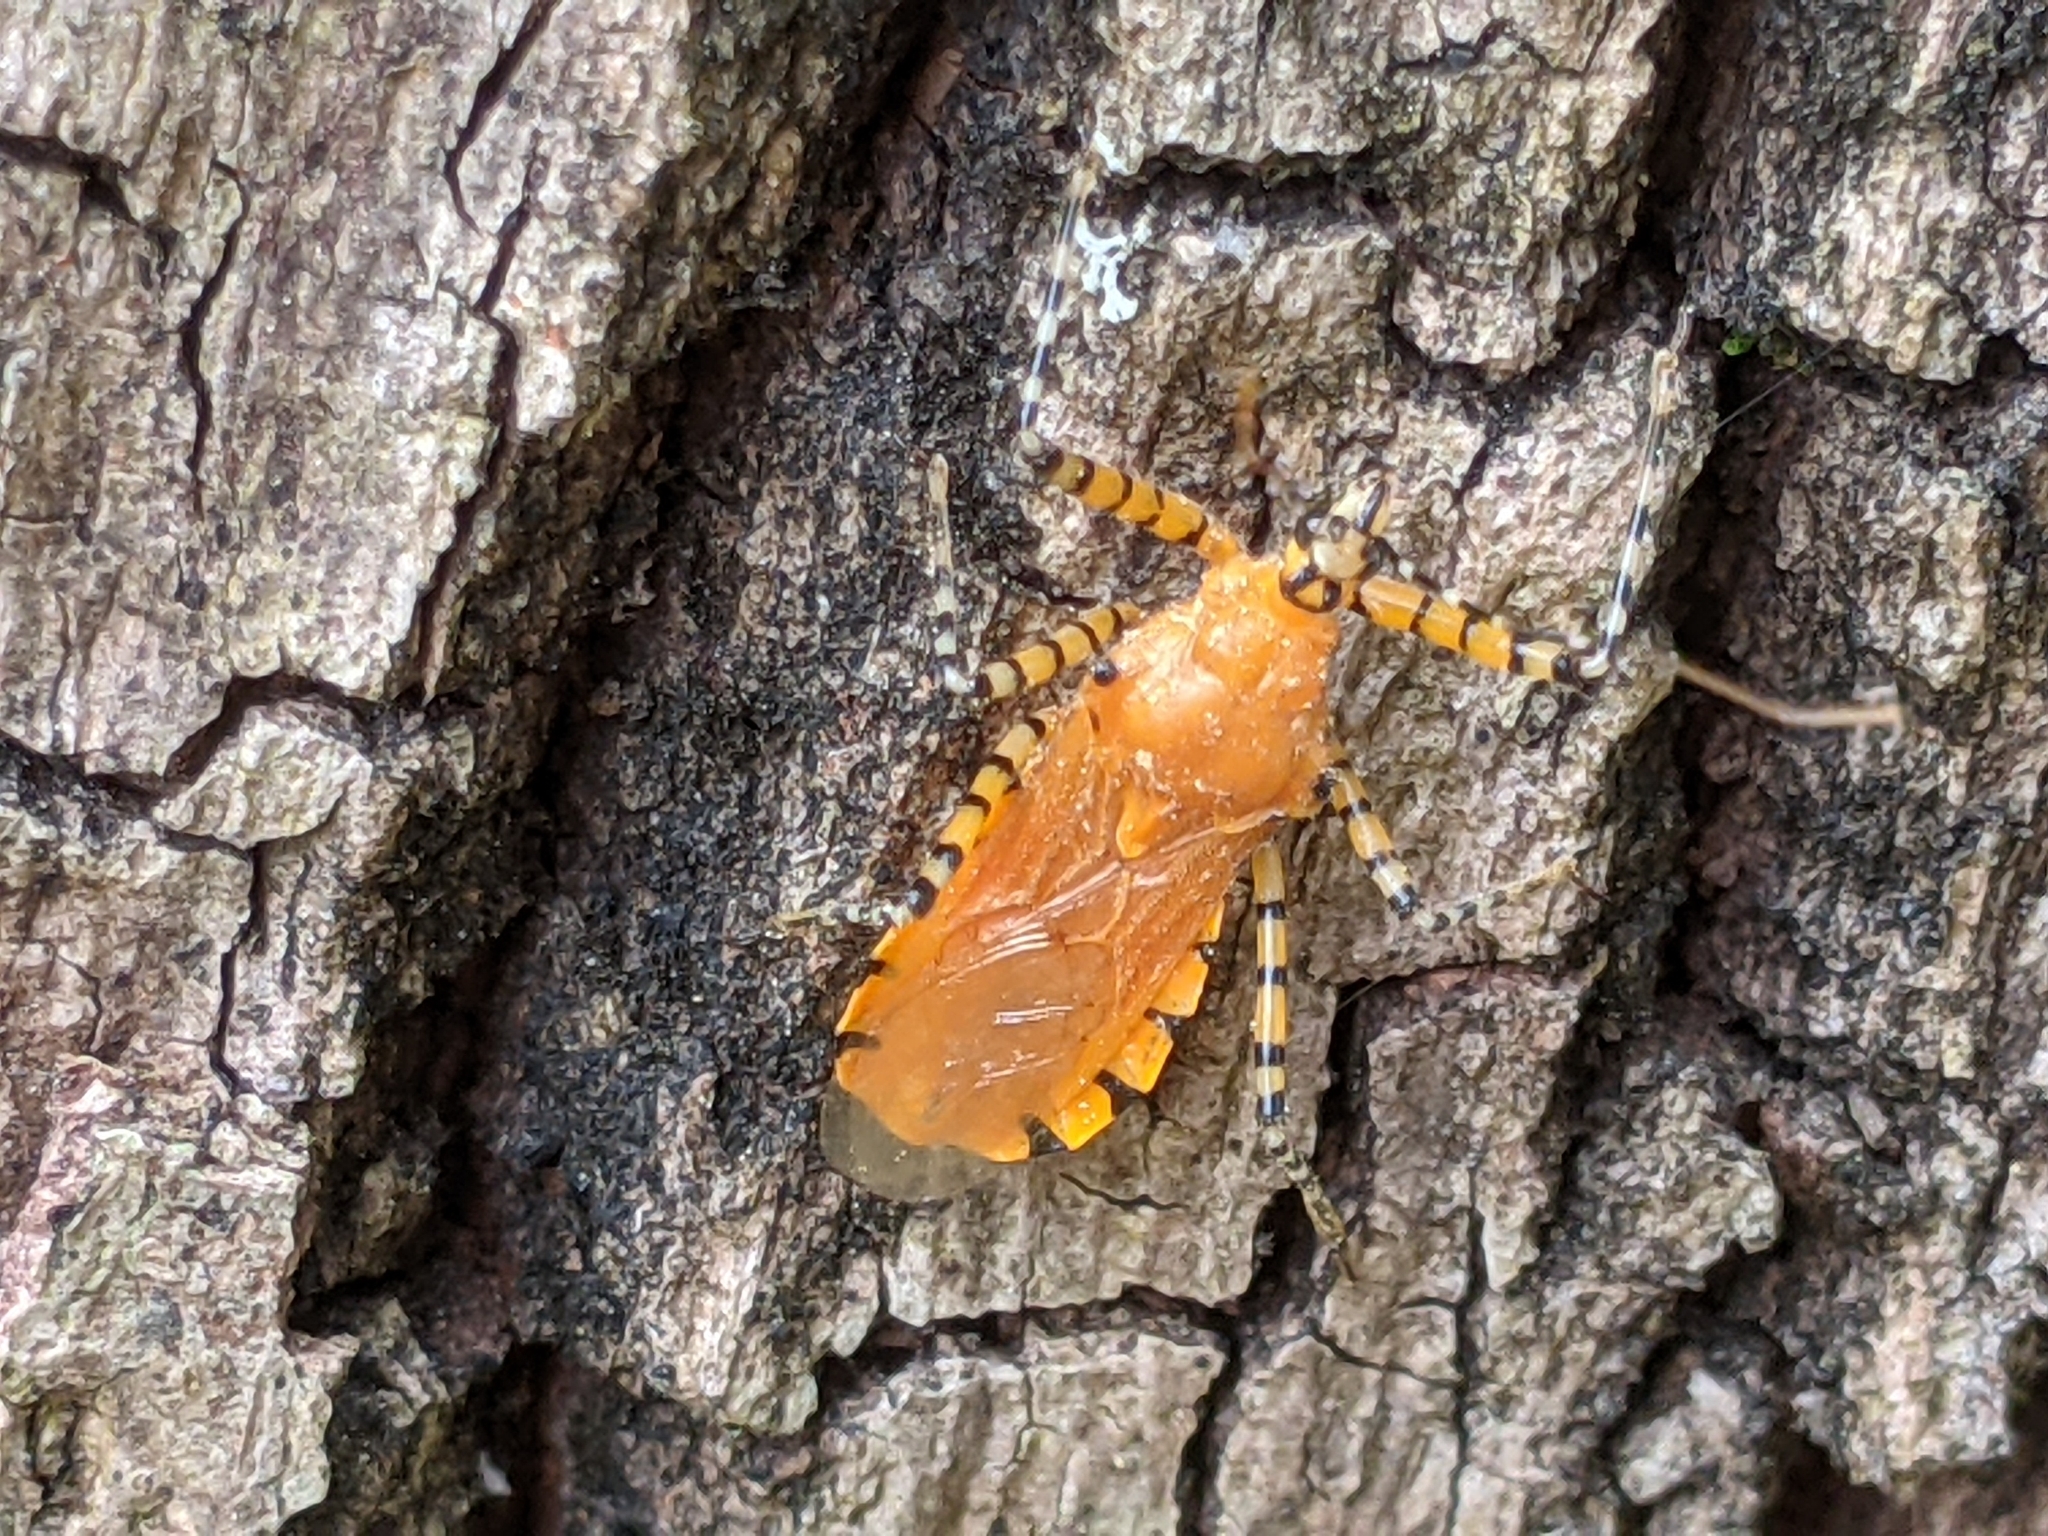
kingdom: Animalia
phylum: Arthropoda
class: Insecta
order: Hemiptera
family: Reduviidae
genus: Pselliopus
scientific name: Pselliopus barberi
